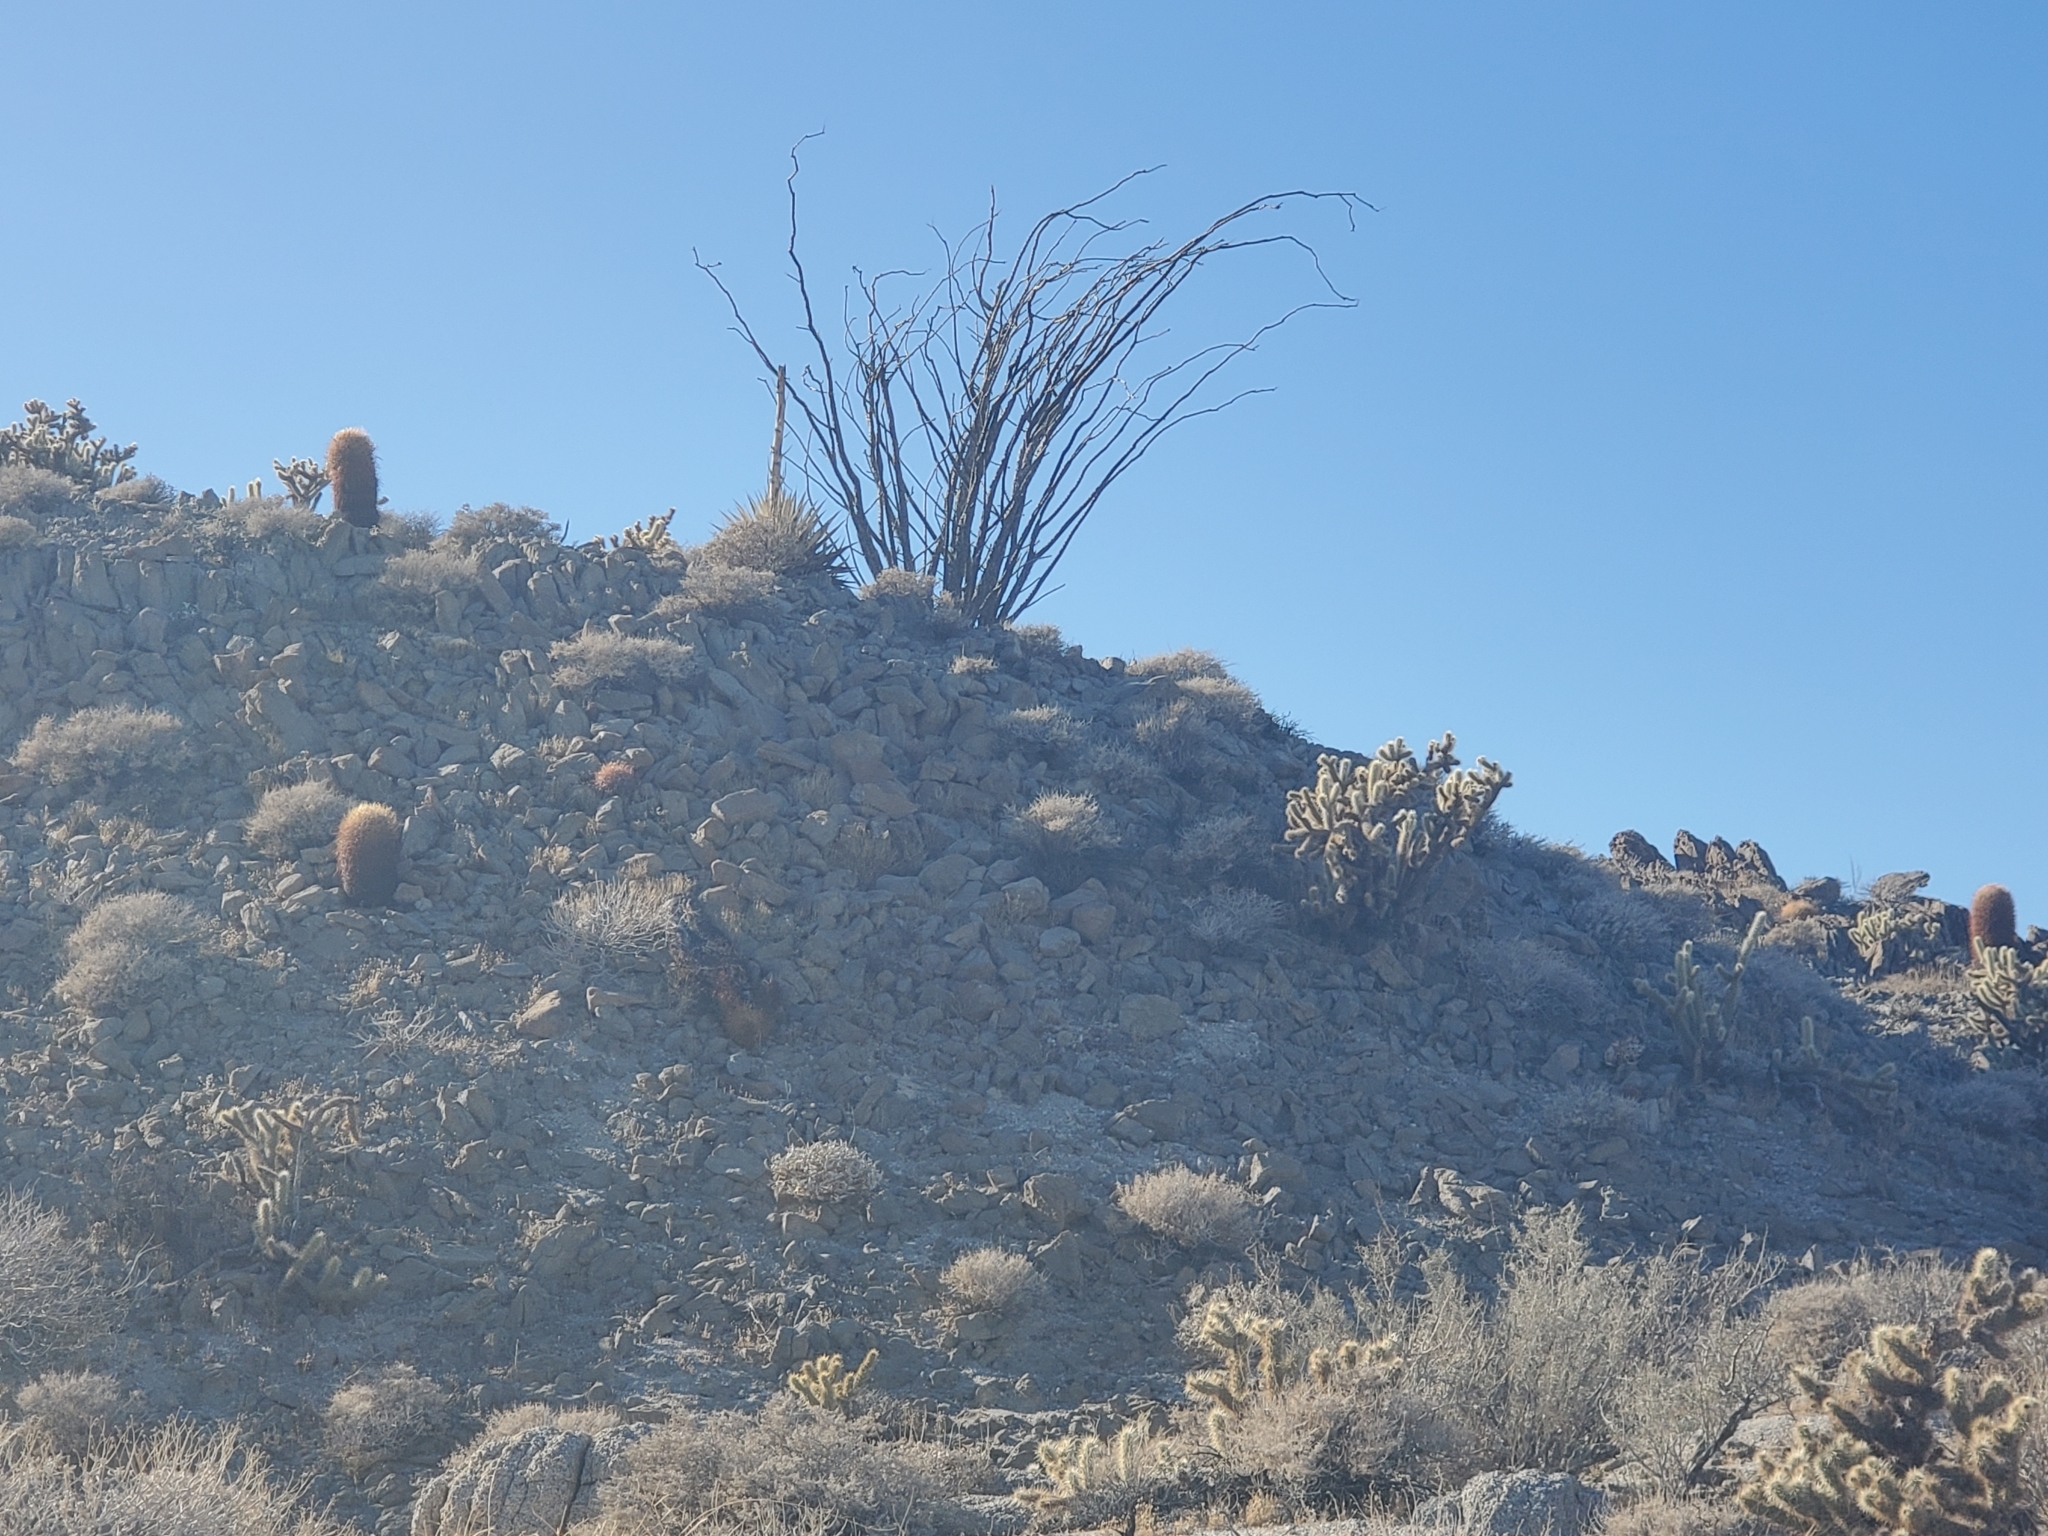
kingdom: Plantae
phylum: Tracheophyta
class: Magnoliopsida
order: Ericales
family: Fouquieriaceae
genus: Fouquieria
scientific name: Fouquieria splendens
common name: Vine-cactus
